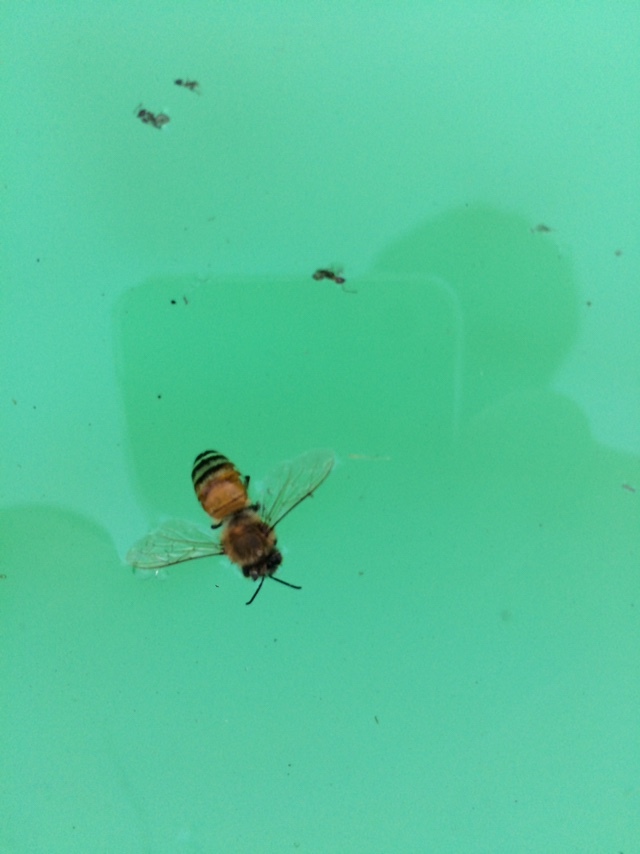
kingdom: Animalia
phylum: Arthropoda
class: Insecta
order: Hymenoptera
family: Apidae
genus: Apis
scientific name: Apis mellifera
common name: Honey bee
